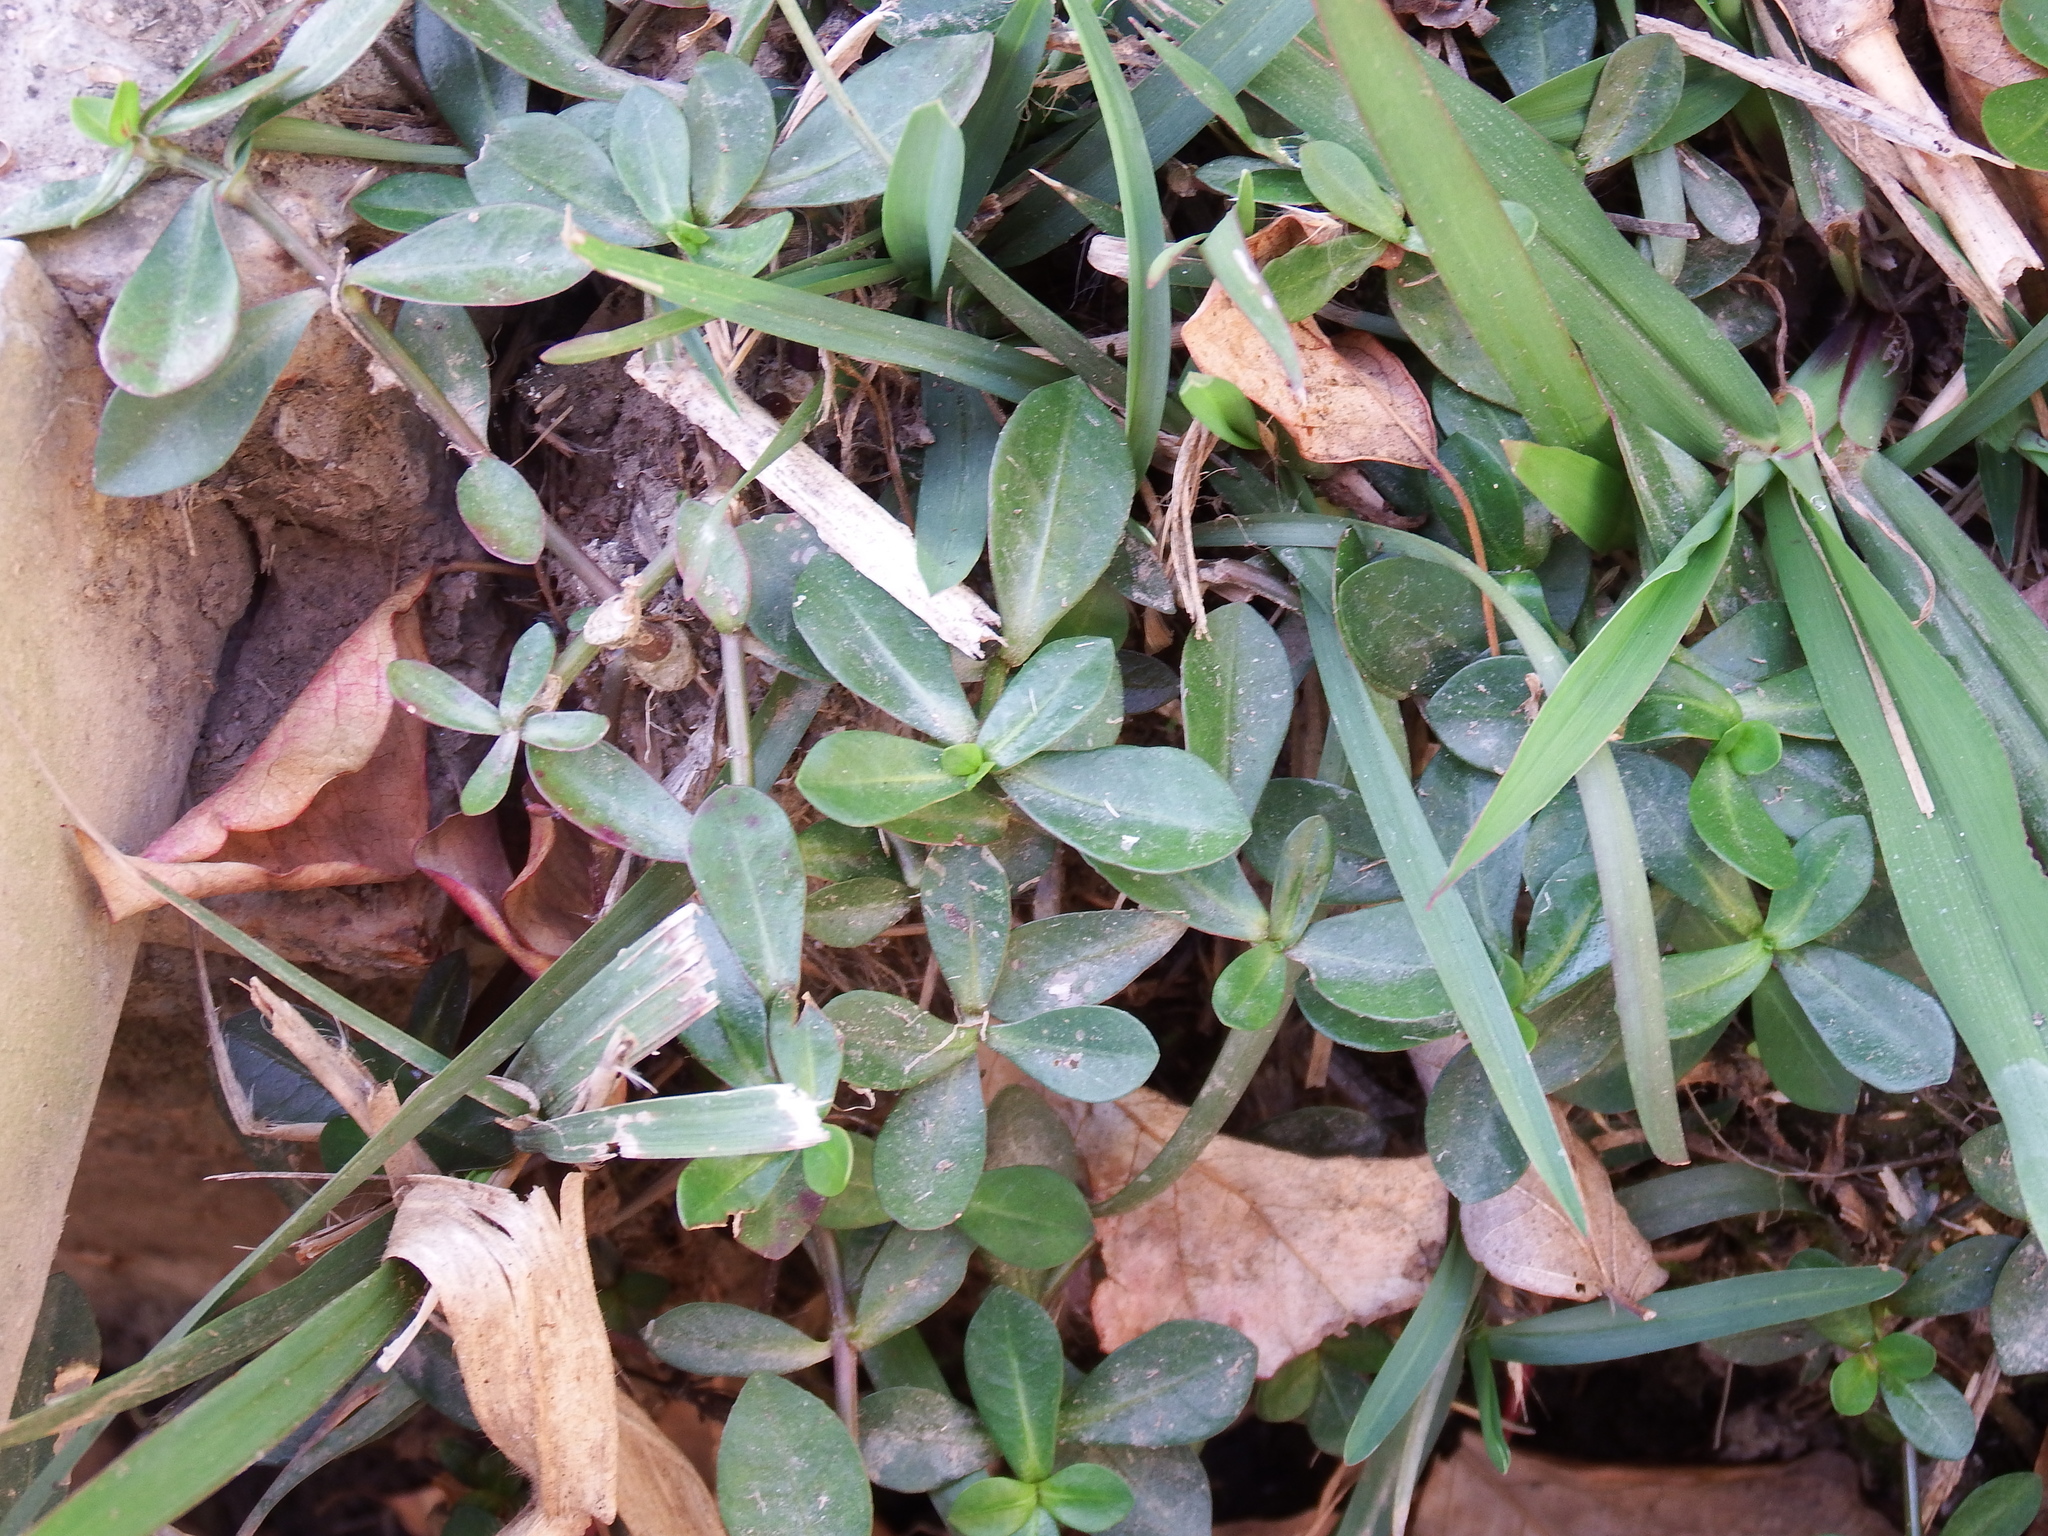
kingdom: Plantae
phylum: Tracheophyta
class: Magnoliopsida
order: Caryophyllales
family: Amaranthaceae
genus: Alternanthera
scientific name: Alternanthera philoxeroides
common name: Alligatorweed
